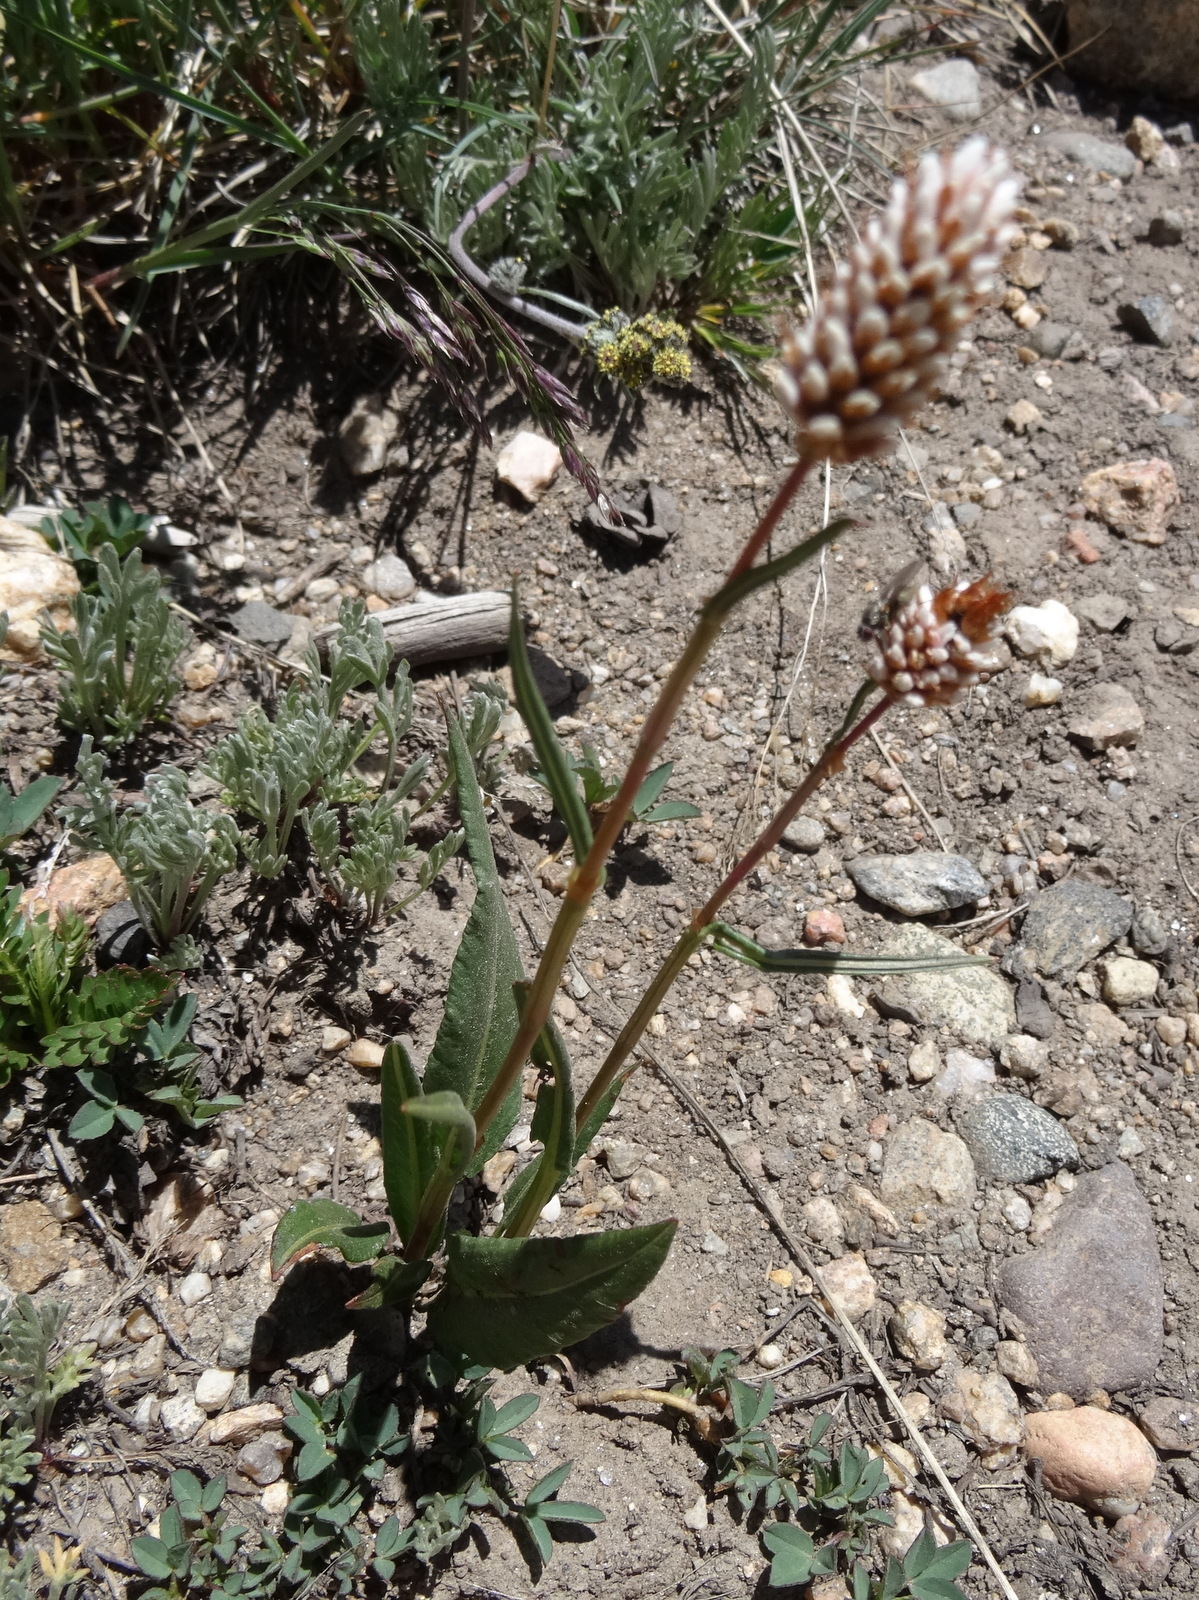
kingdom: Plantae
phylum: Tracheophyta
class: Magnoliopsida
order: Caryophyllales
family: Polygonaceae
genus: Bistorta
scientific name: Bistorta bistortoides
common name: American bistort
